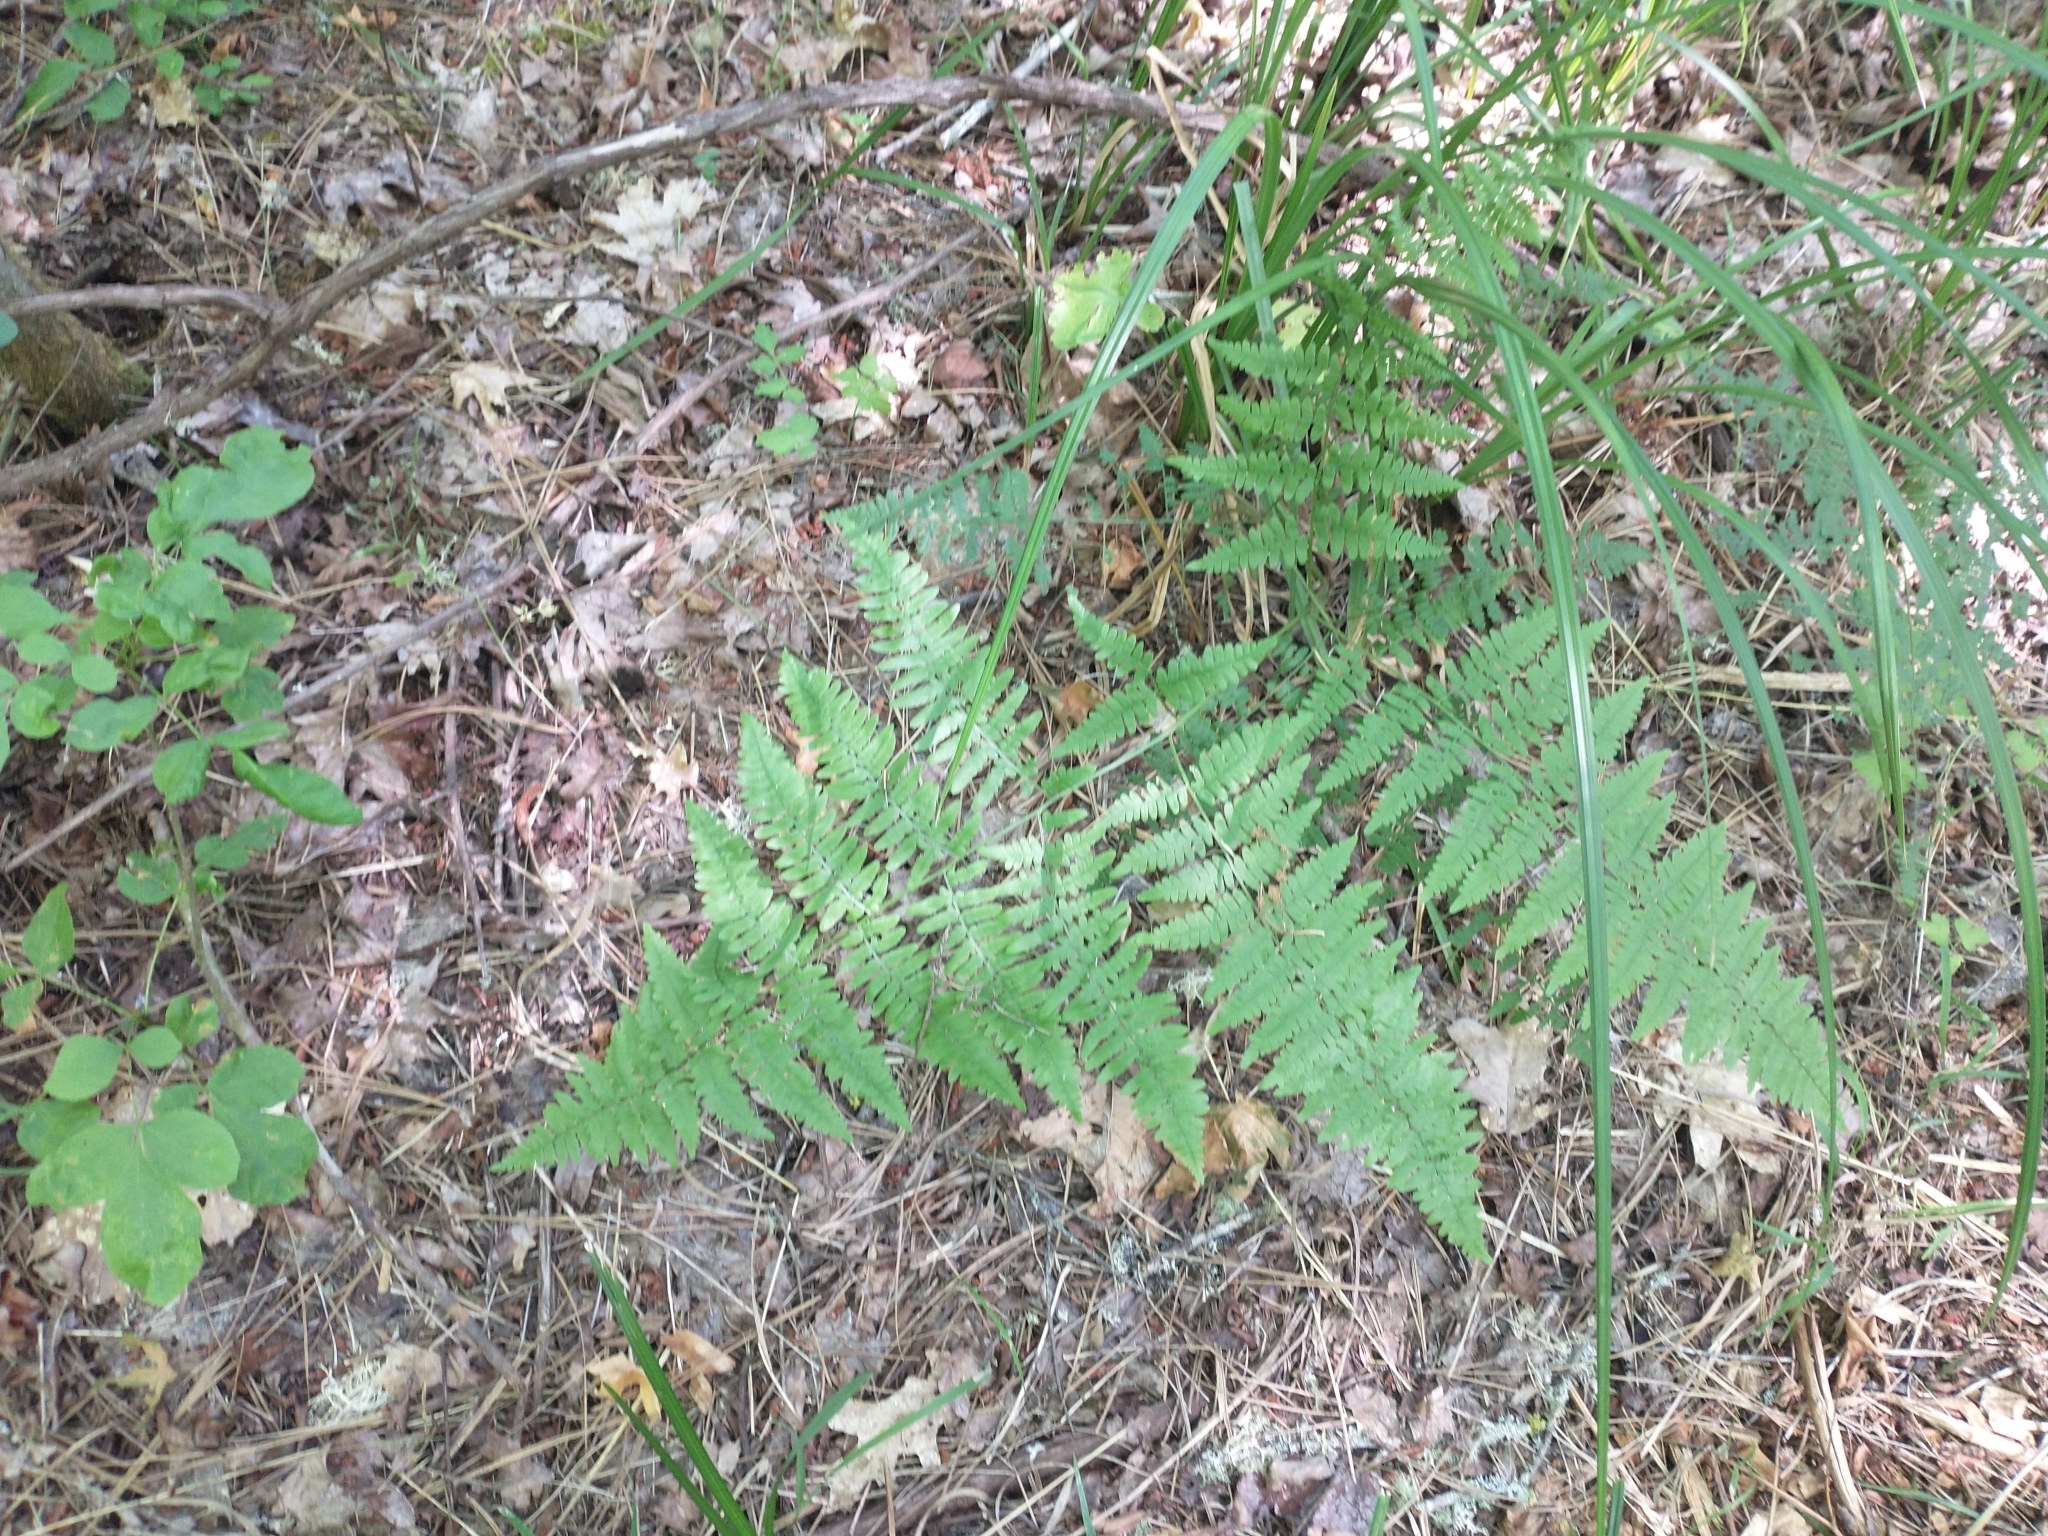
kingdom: Plantae
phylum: Tracheophyta
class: Polypodiopsida
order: Polypodiales
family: Dennstaedtiaceae
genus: Pteridium
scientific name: Pteridium aquilinum
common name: Bracken
